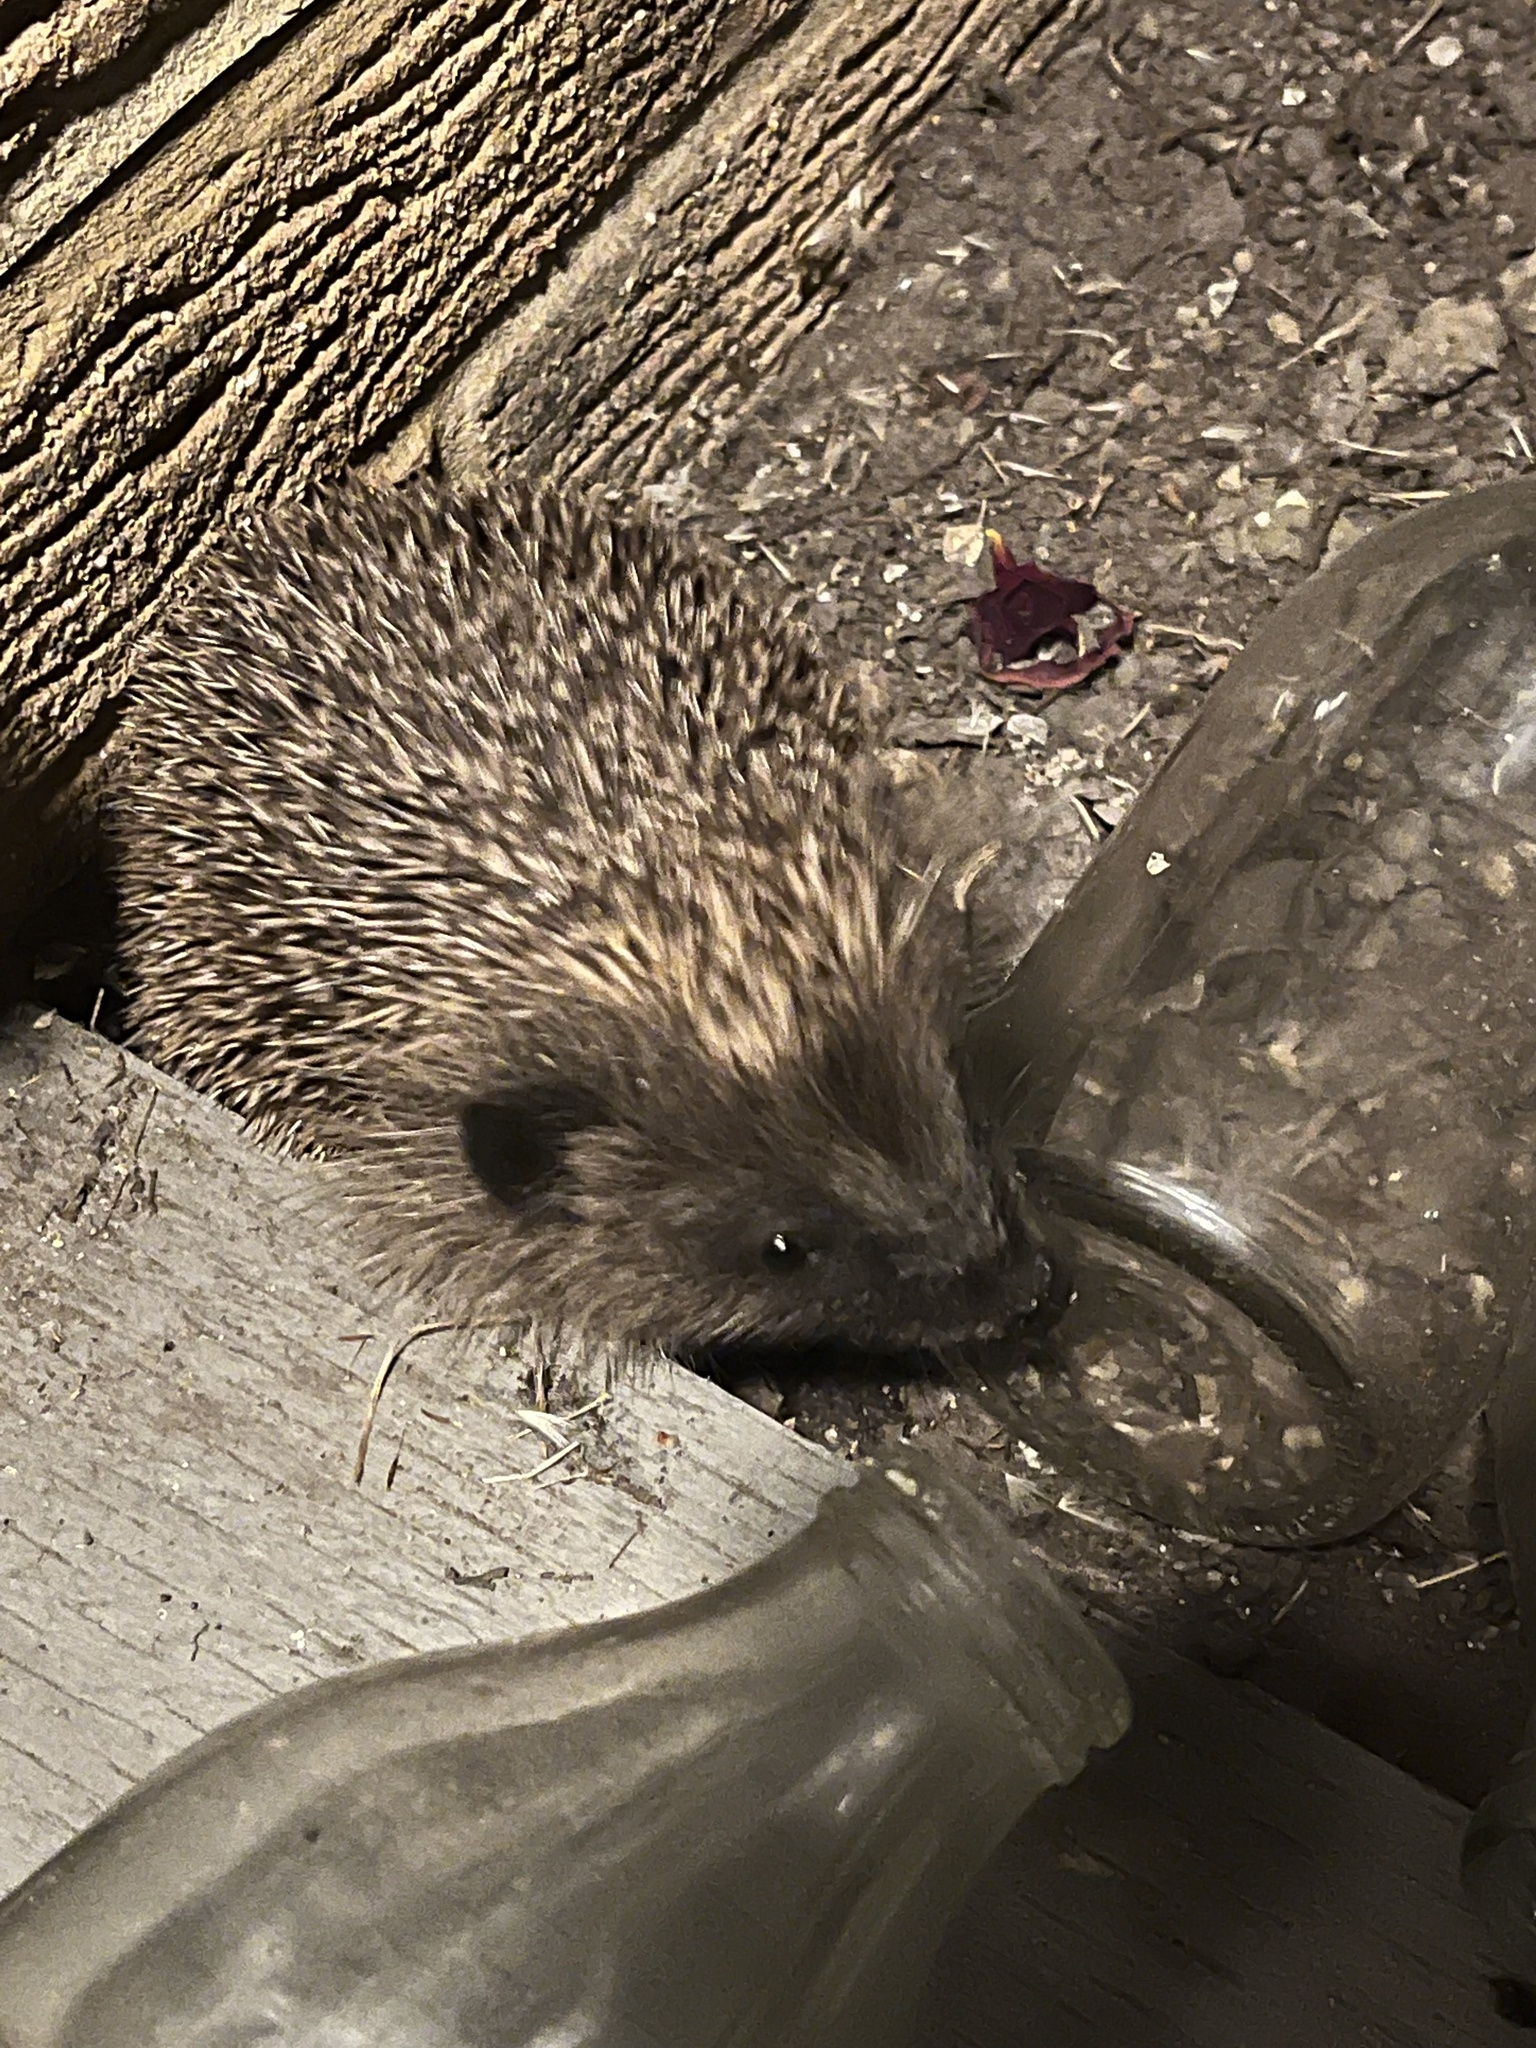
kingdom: Animalia
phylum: Chordata
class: Mammalia
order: Erinaceomorpha
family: Erinaceidae
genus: Erinaceus
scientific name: Erinaceus europaeus
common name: West european hedgehog
